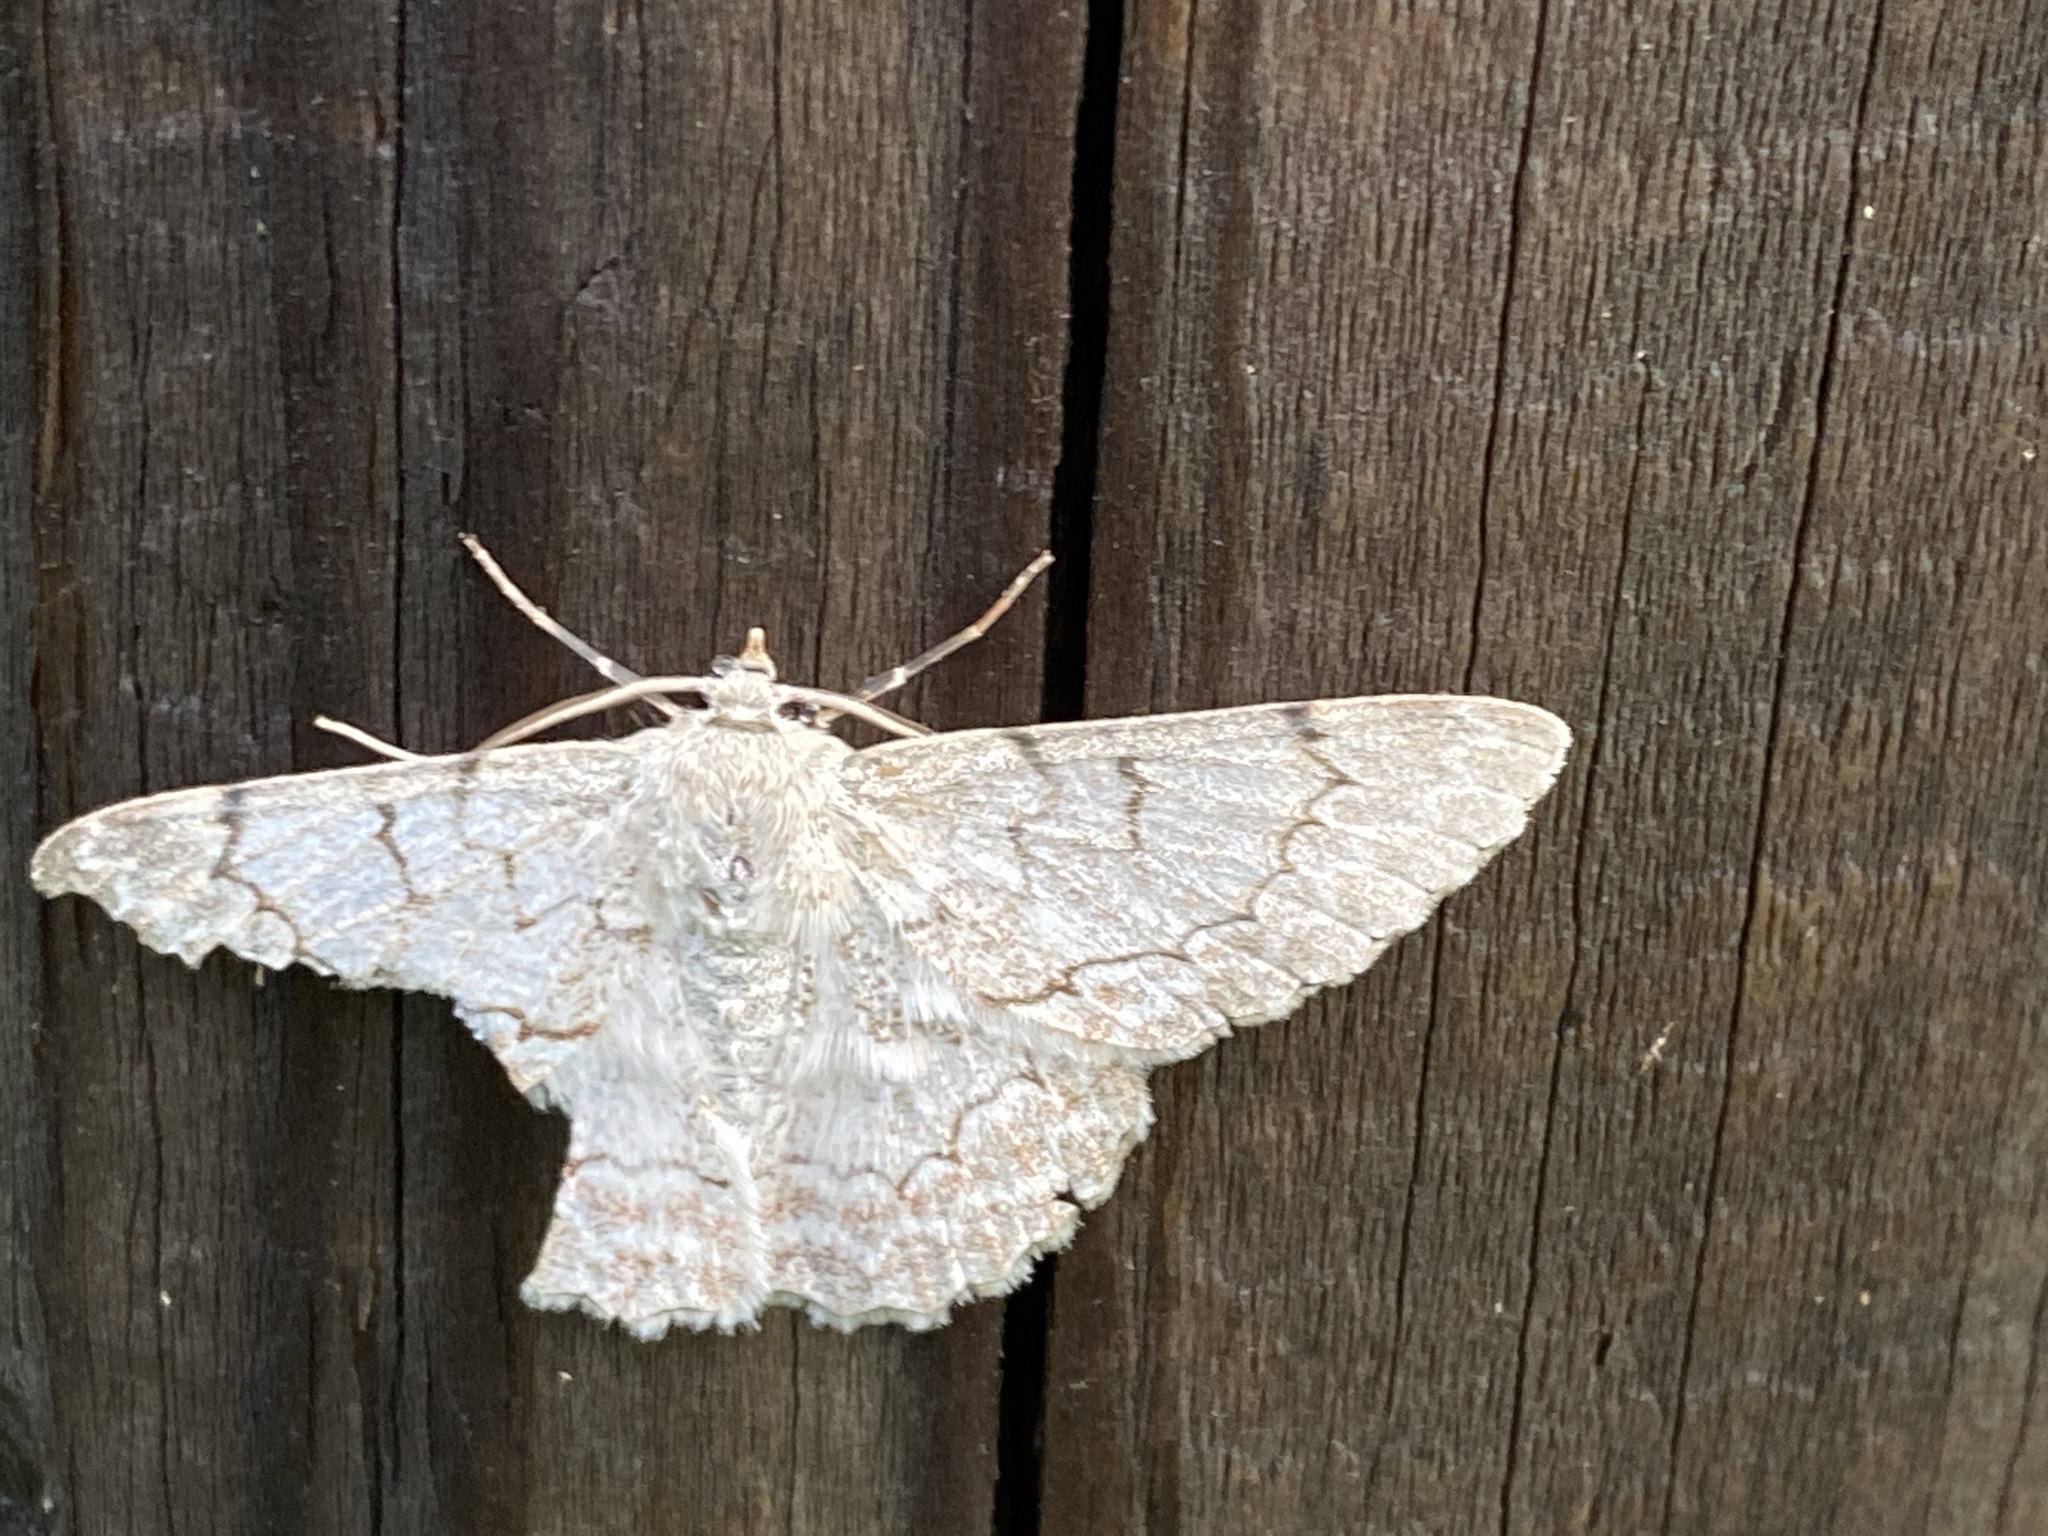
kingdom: Animalia
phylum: Arthropoda
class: Insecta
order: Lepidoptera
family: Geometridae
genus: Pingasa
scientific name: Pingasa chlora
